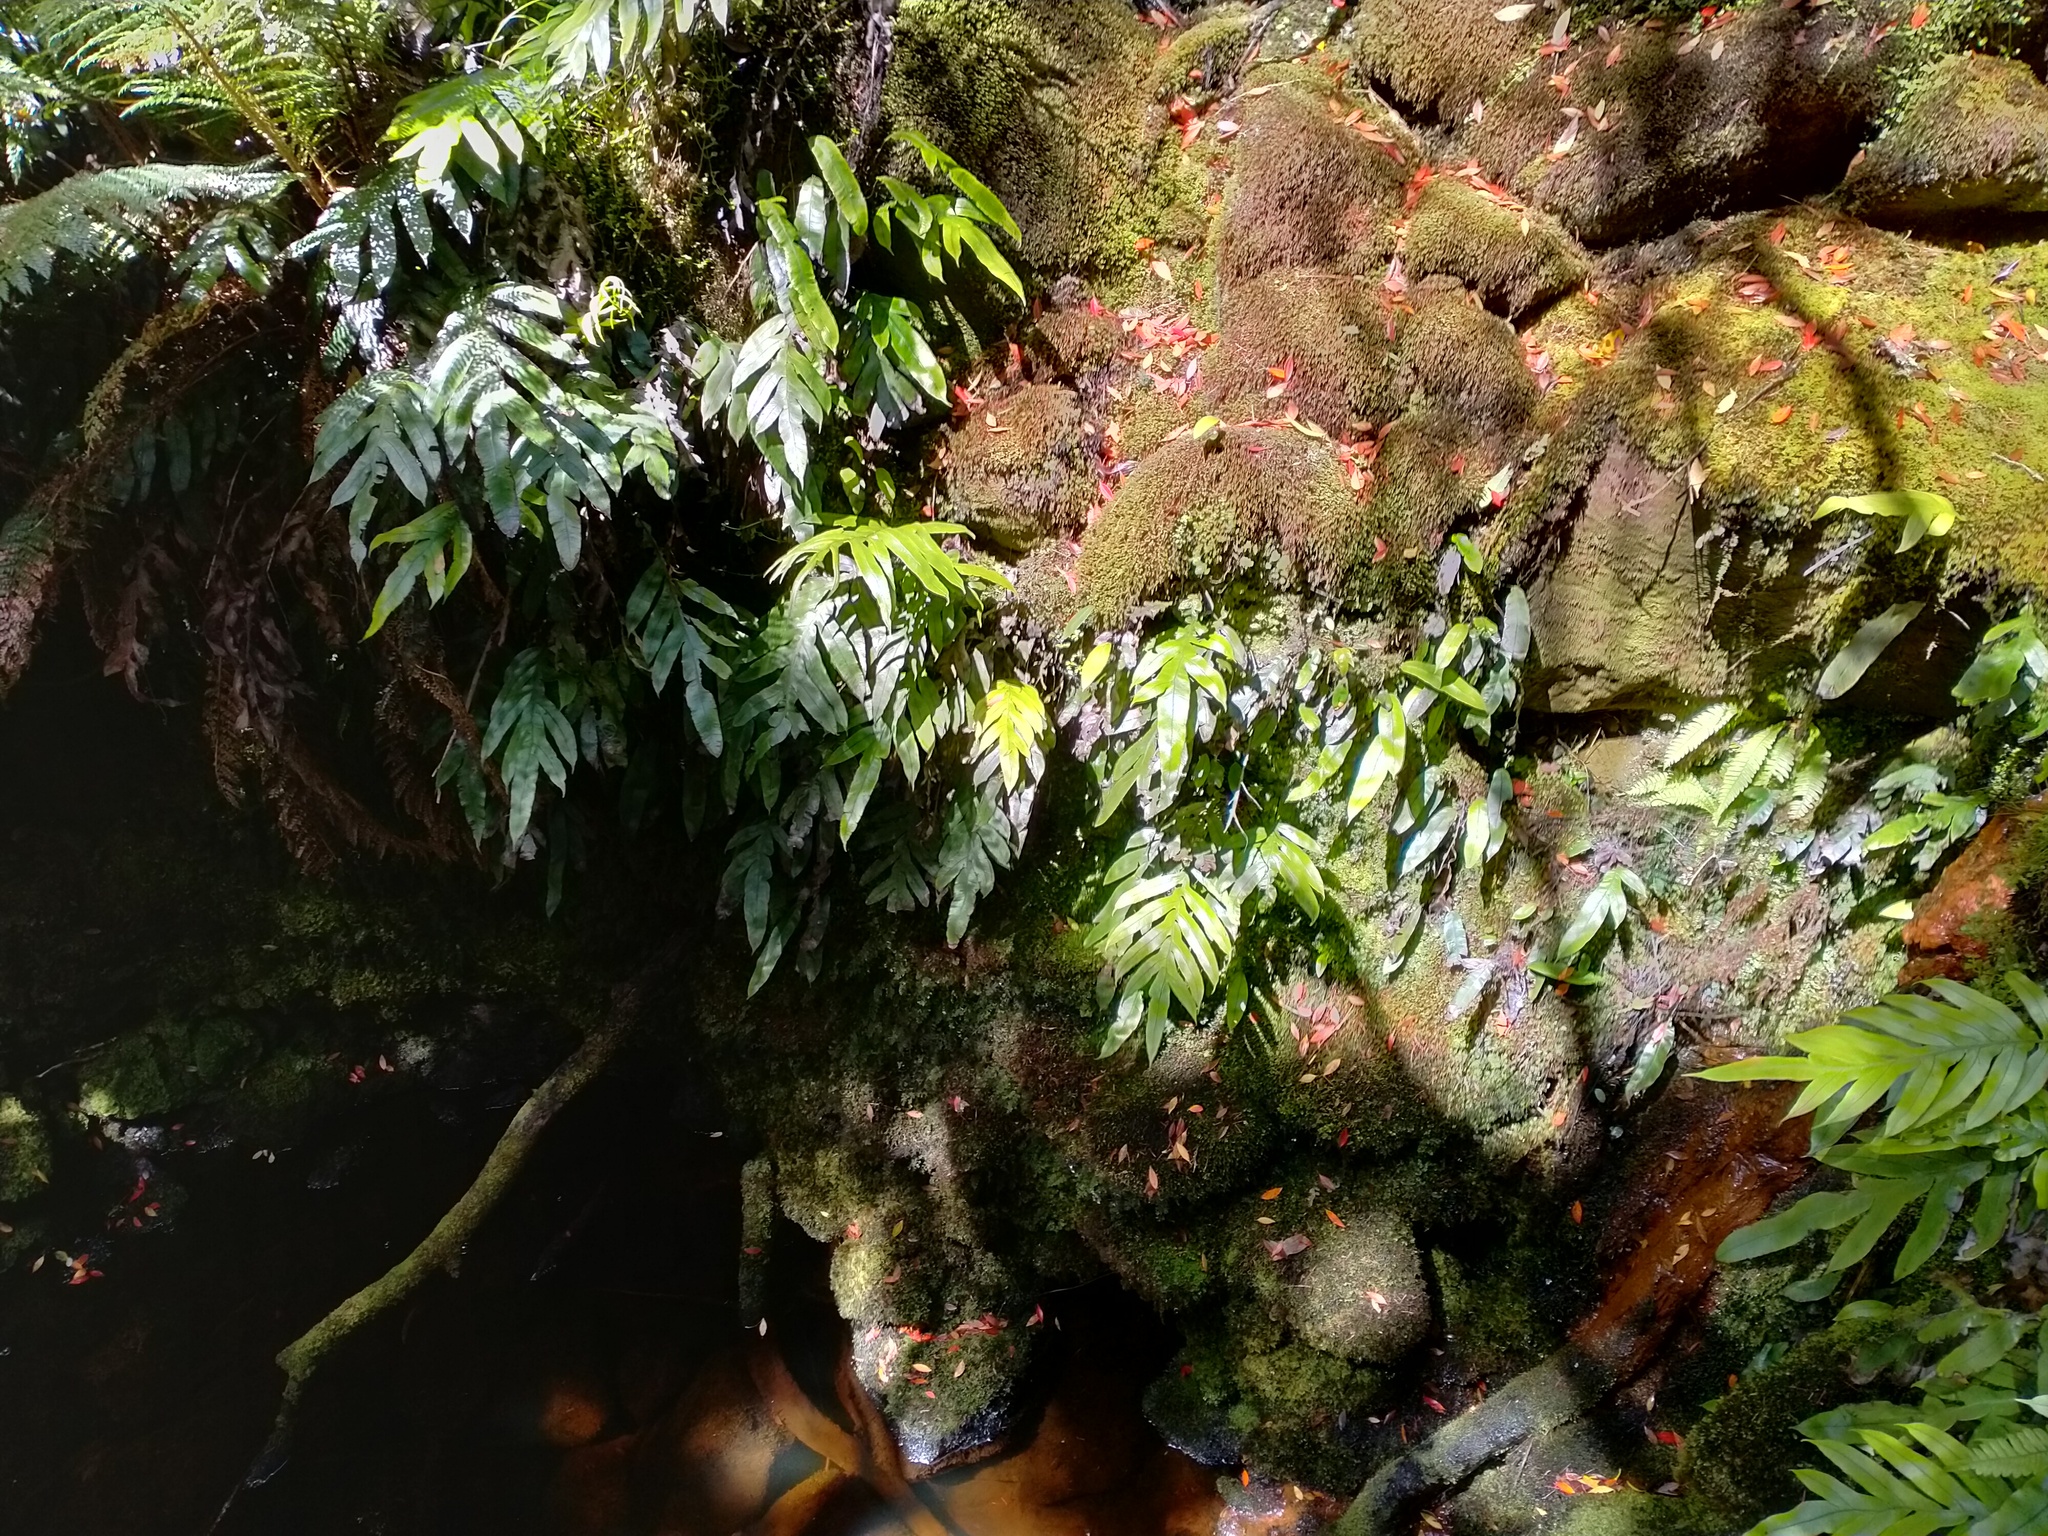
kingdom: Plantae
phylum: Tracheophyta
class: Polypodiopsida
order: Polypodiales
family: Blechnaceae
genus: Austroblechnum
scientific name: Austroblechnum colensoi
